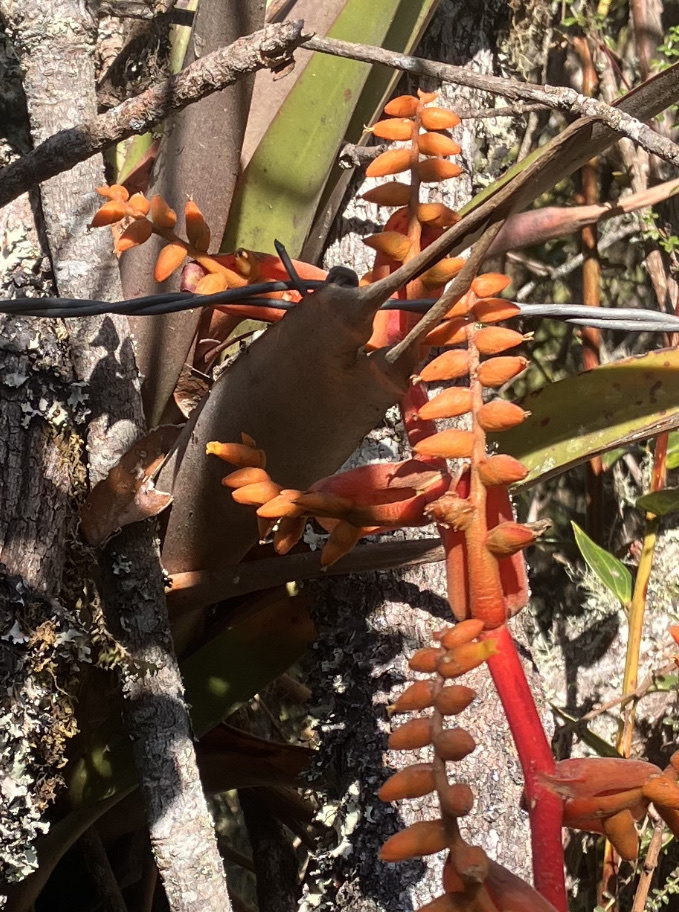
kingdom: Plantae
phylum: Tracheophyta
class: Liliopsida
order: Poales
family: Bromeliaceae
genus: Racinaea
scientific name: Racinaea tetrantha
